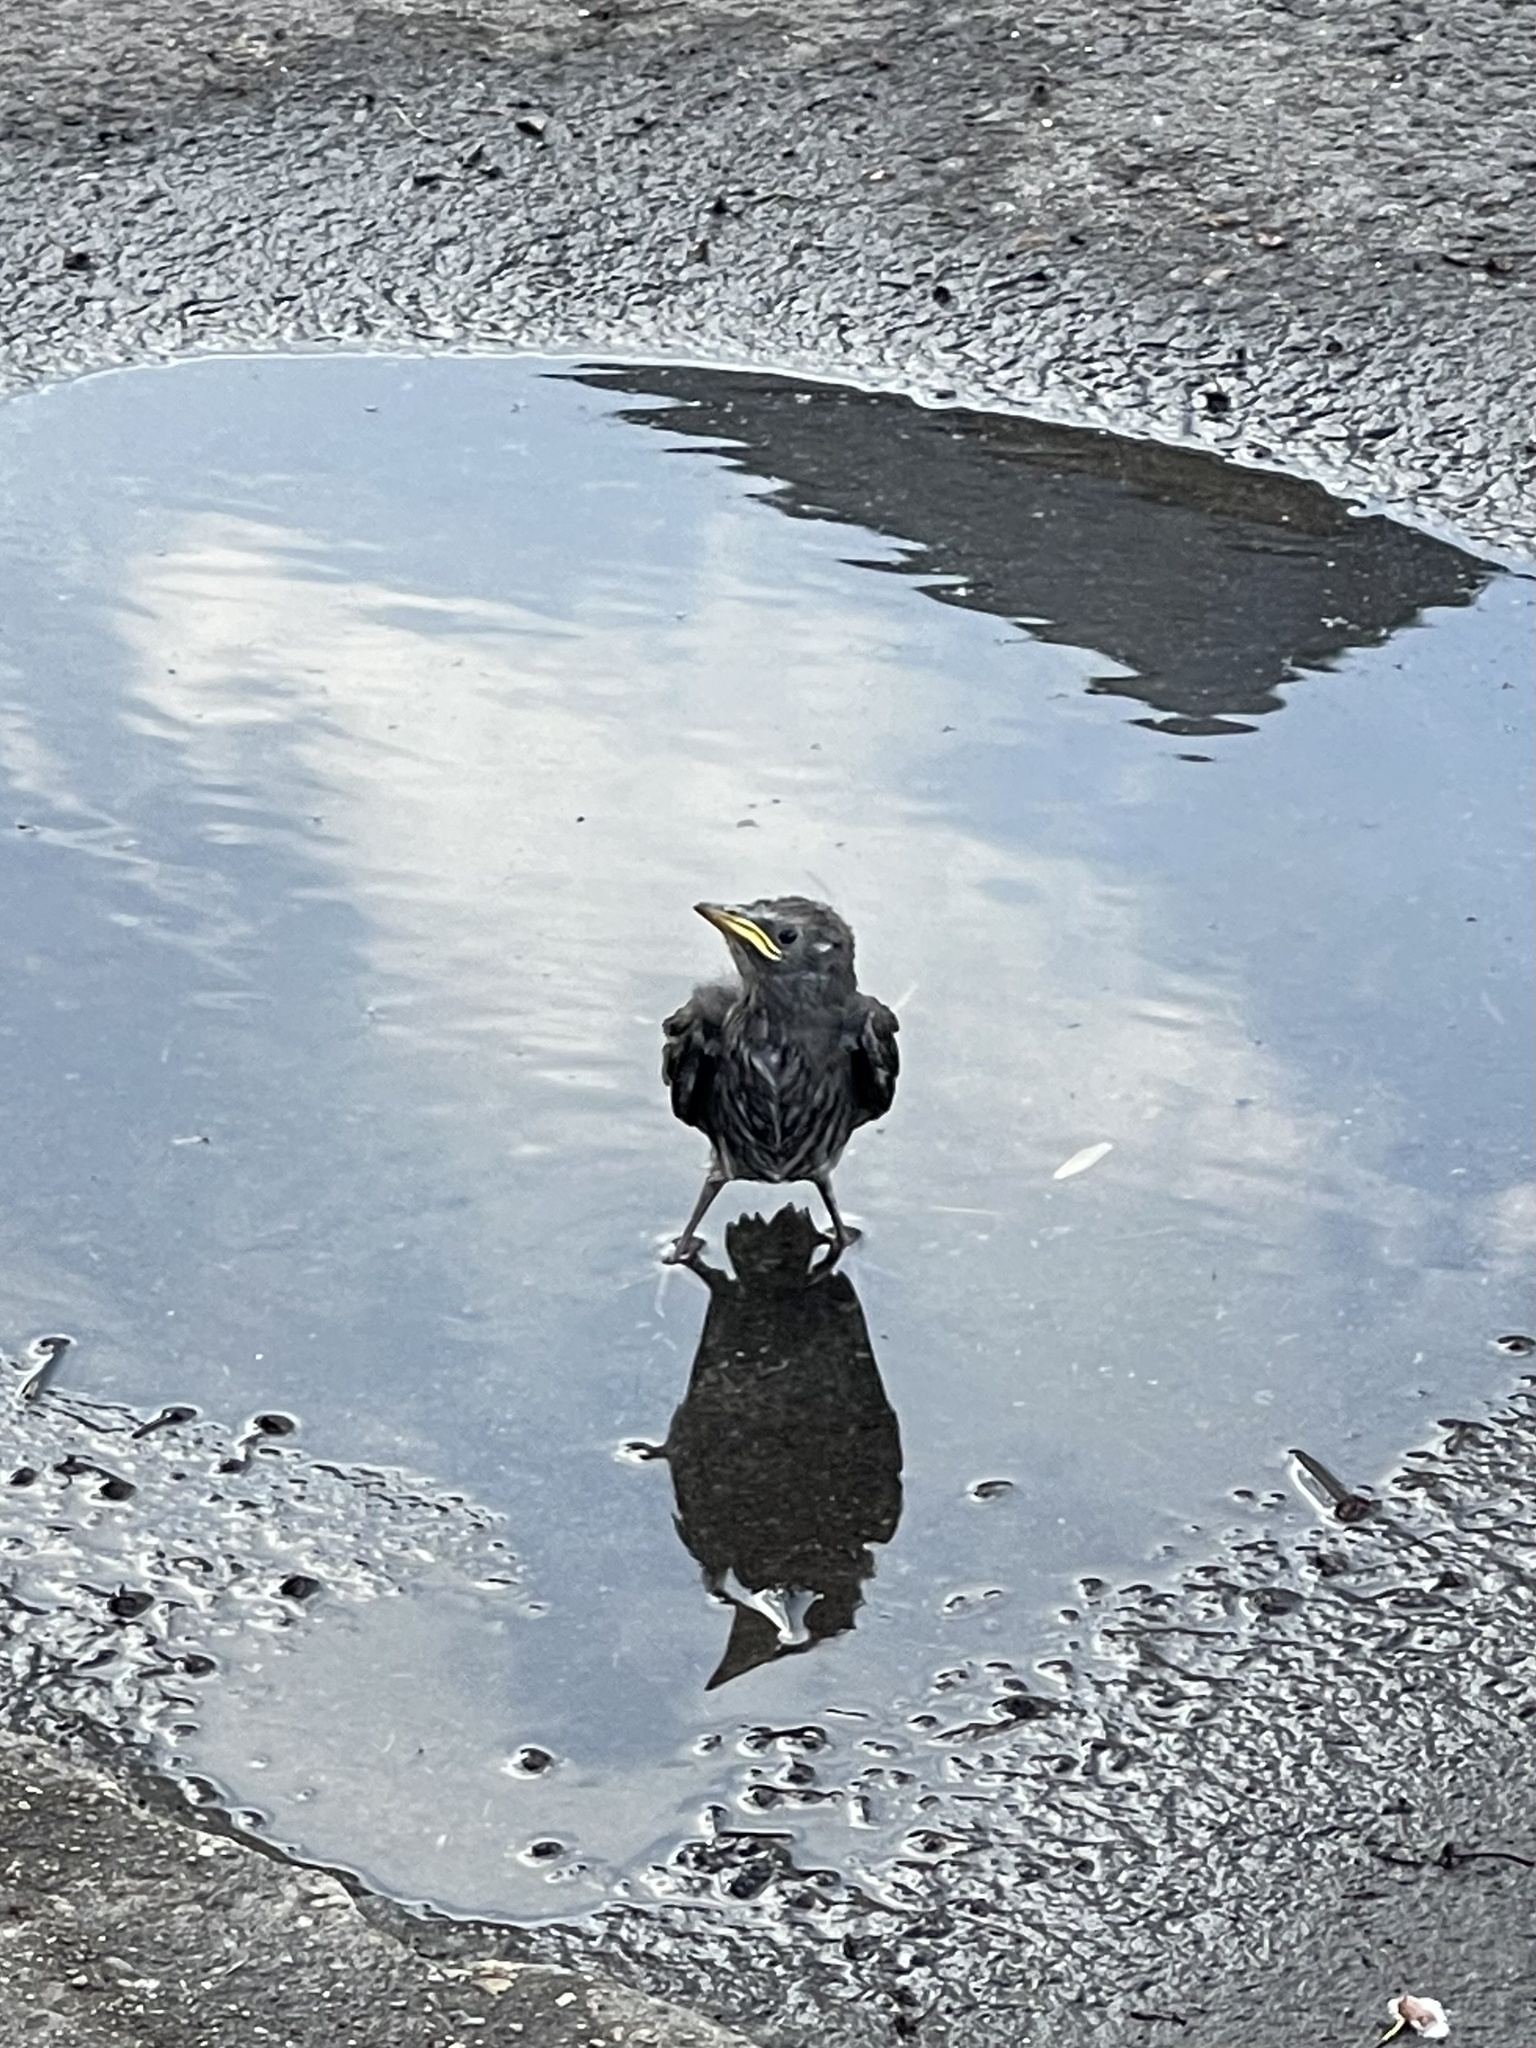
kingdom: Animalia
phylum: Chordata
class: Aves
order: Passeriformes
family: Sturnidae
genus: Sturnus
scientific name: Sturnus vulgaris
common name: Common starling
